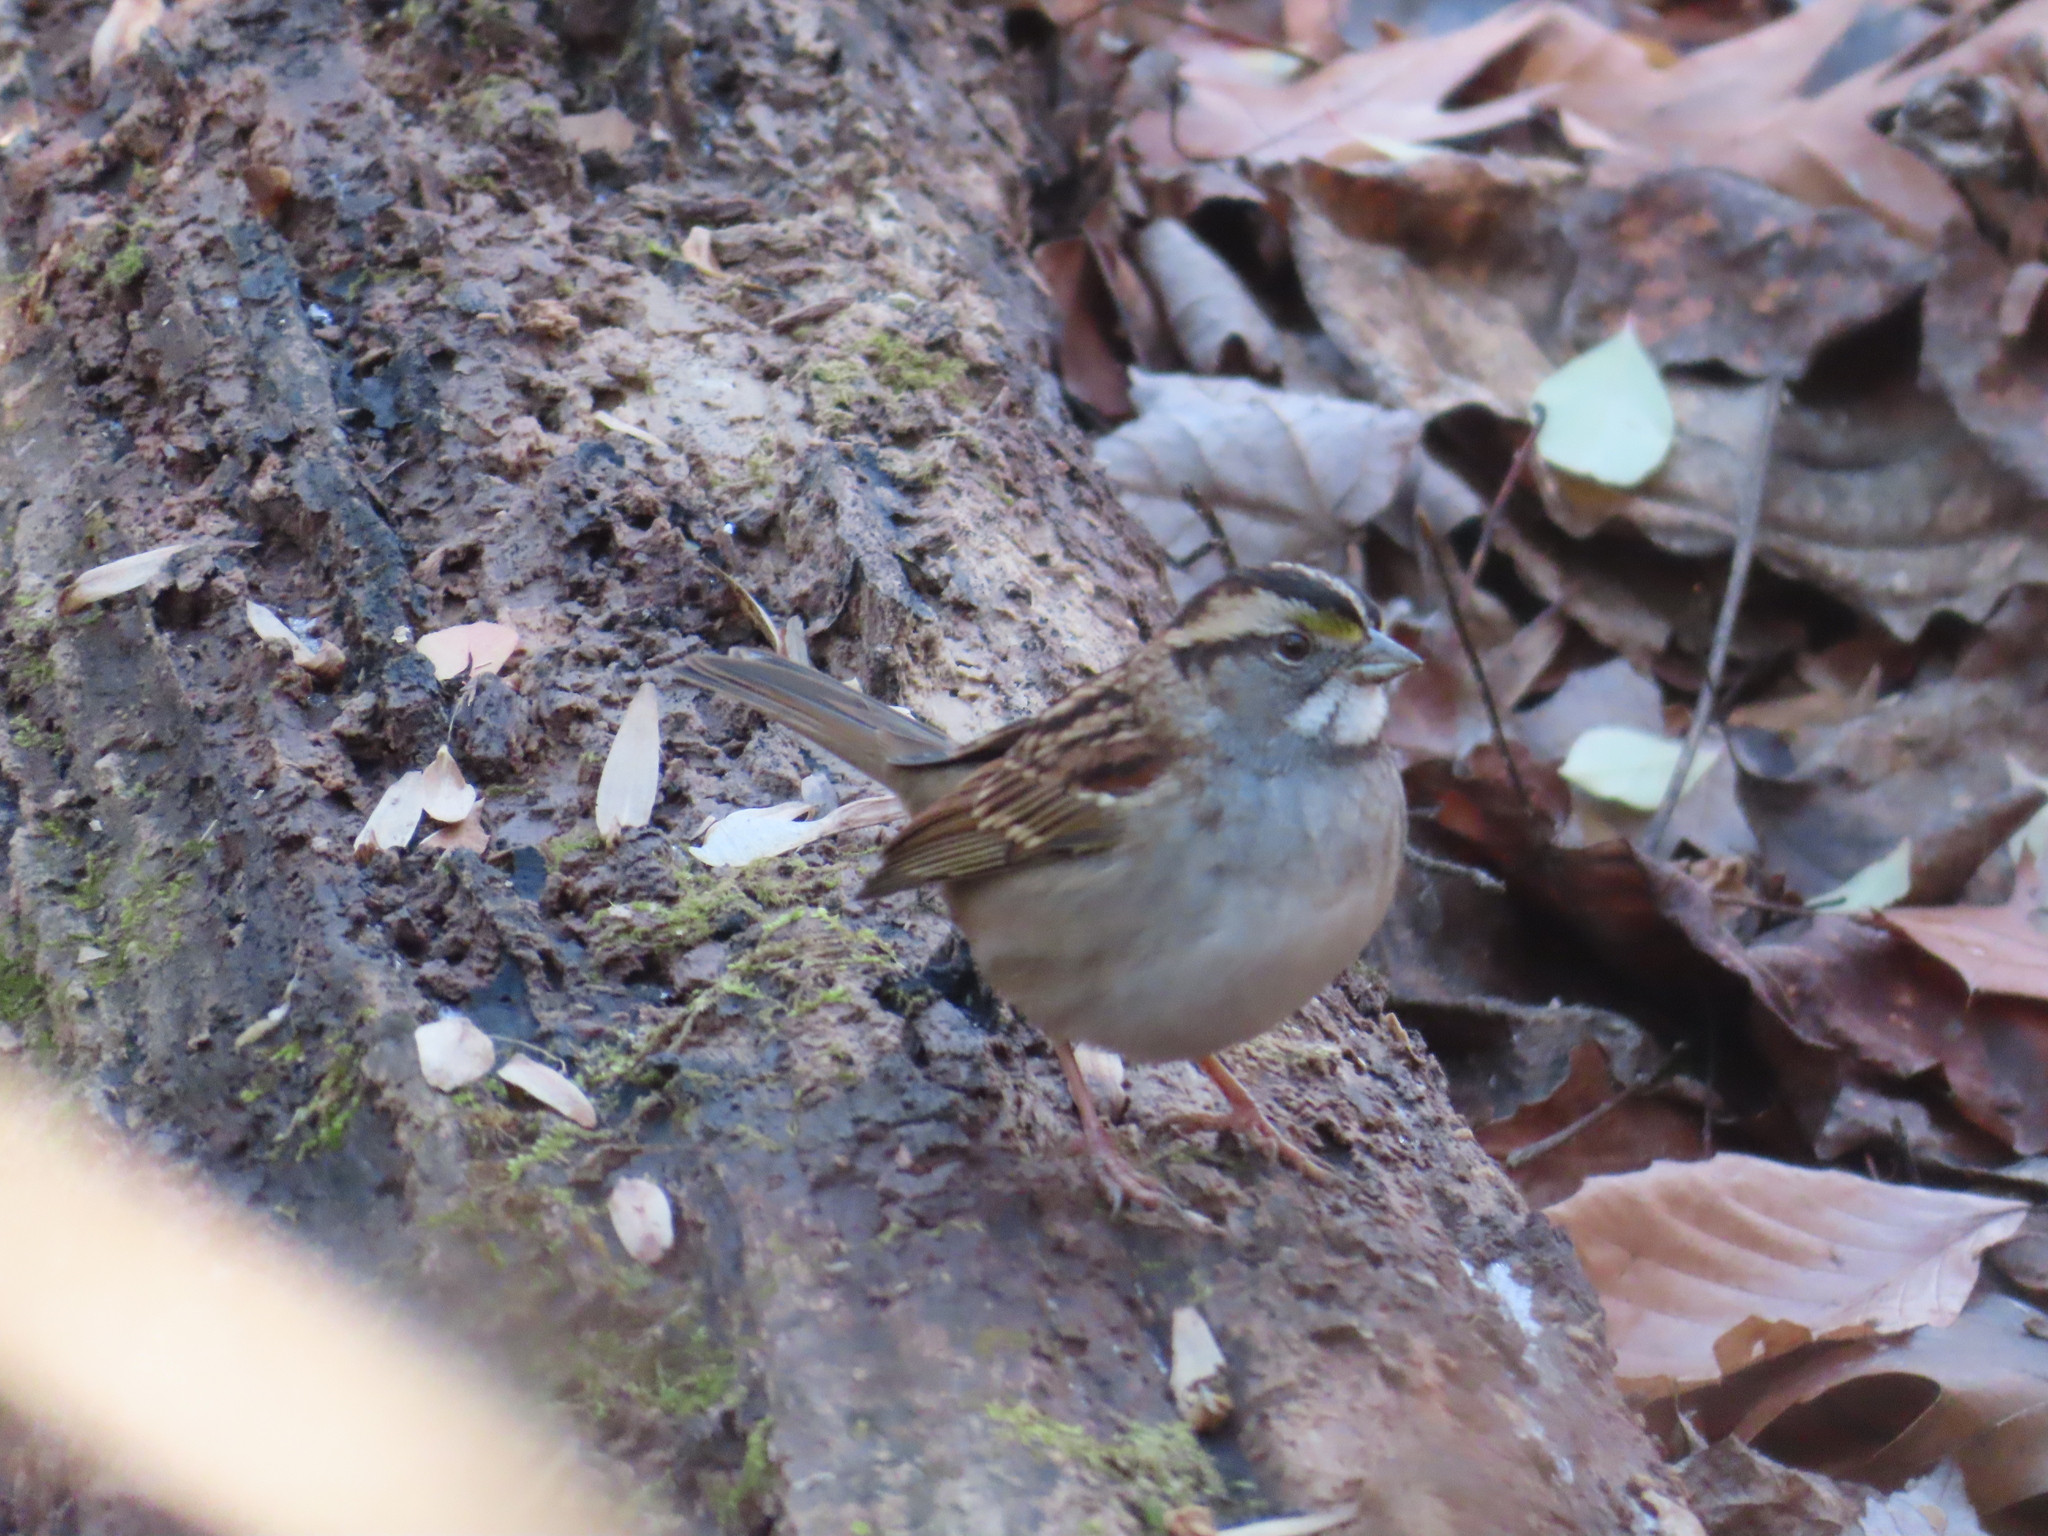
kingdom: Animalia
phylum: Chordata
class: Aves
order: Passeriformes
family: Passerellidae
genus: Zonotrichia
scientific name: Zonotrichia albicollis
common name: White-throated sparrow
